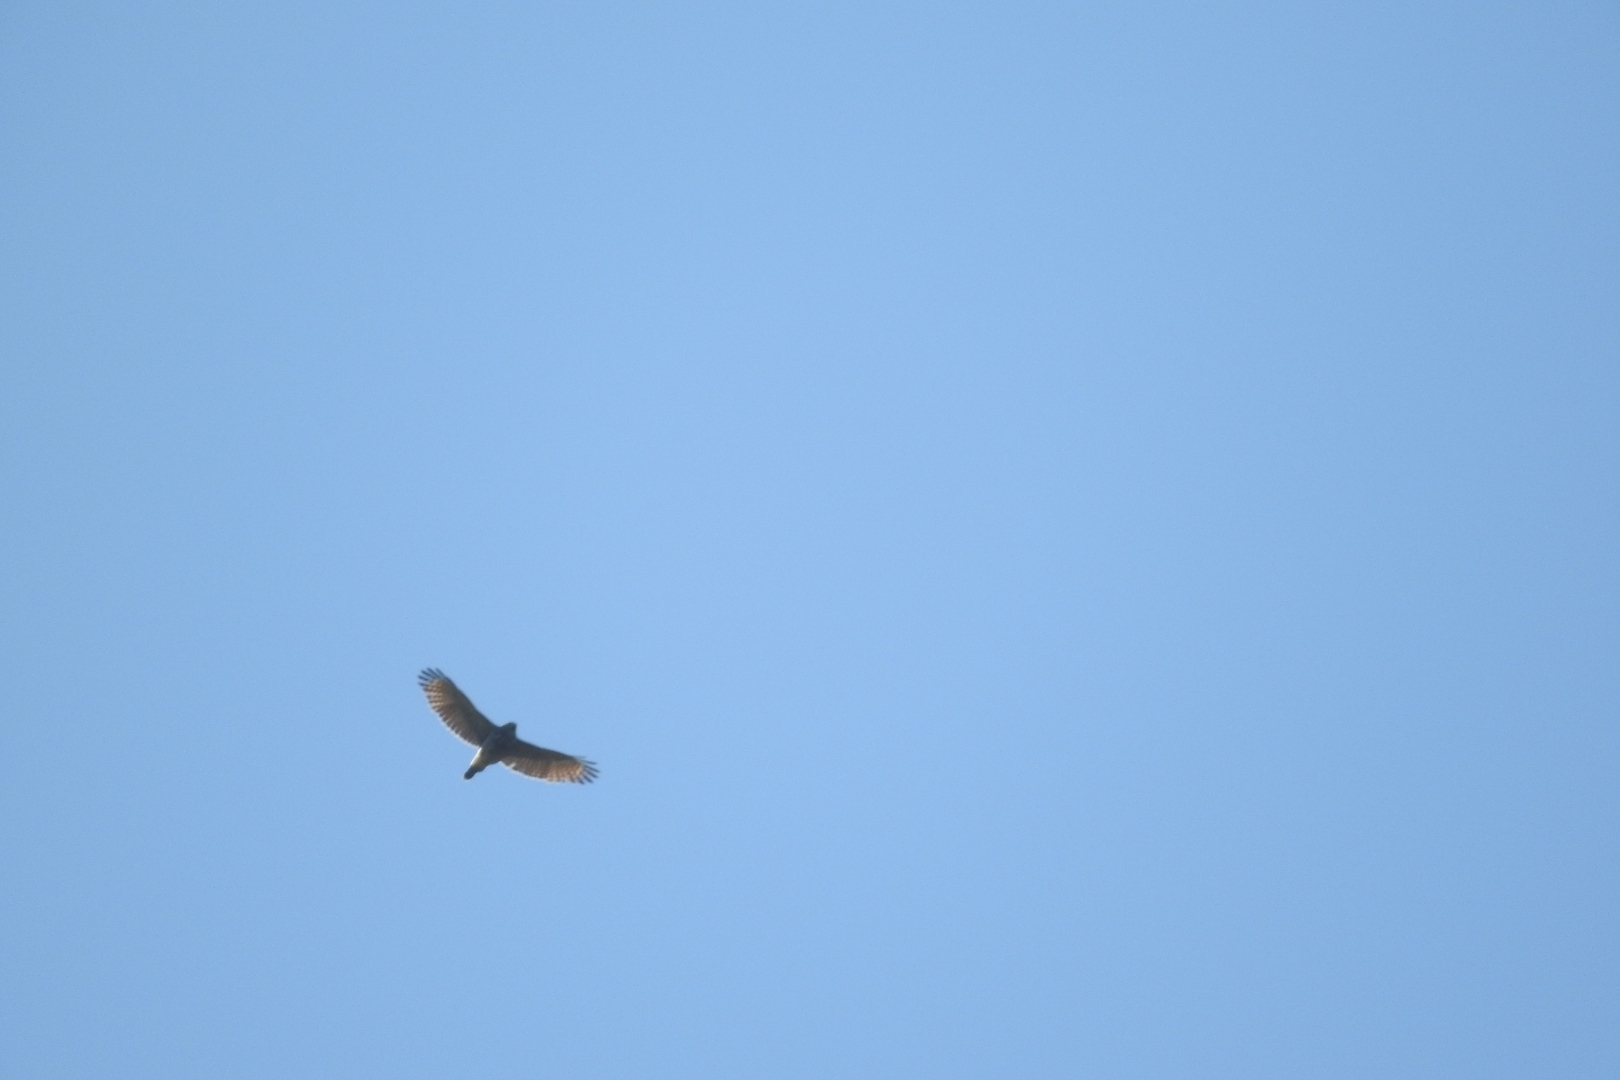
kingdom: Animalia
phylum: Chordata
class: Aves
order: Accipitriformes
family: Accipitridae
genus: Rupornis
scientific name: Rupornis magnirostris
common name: Roadside hawk
